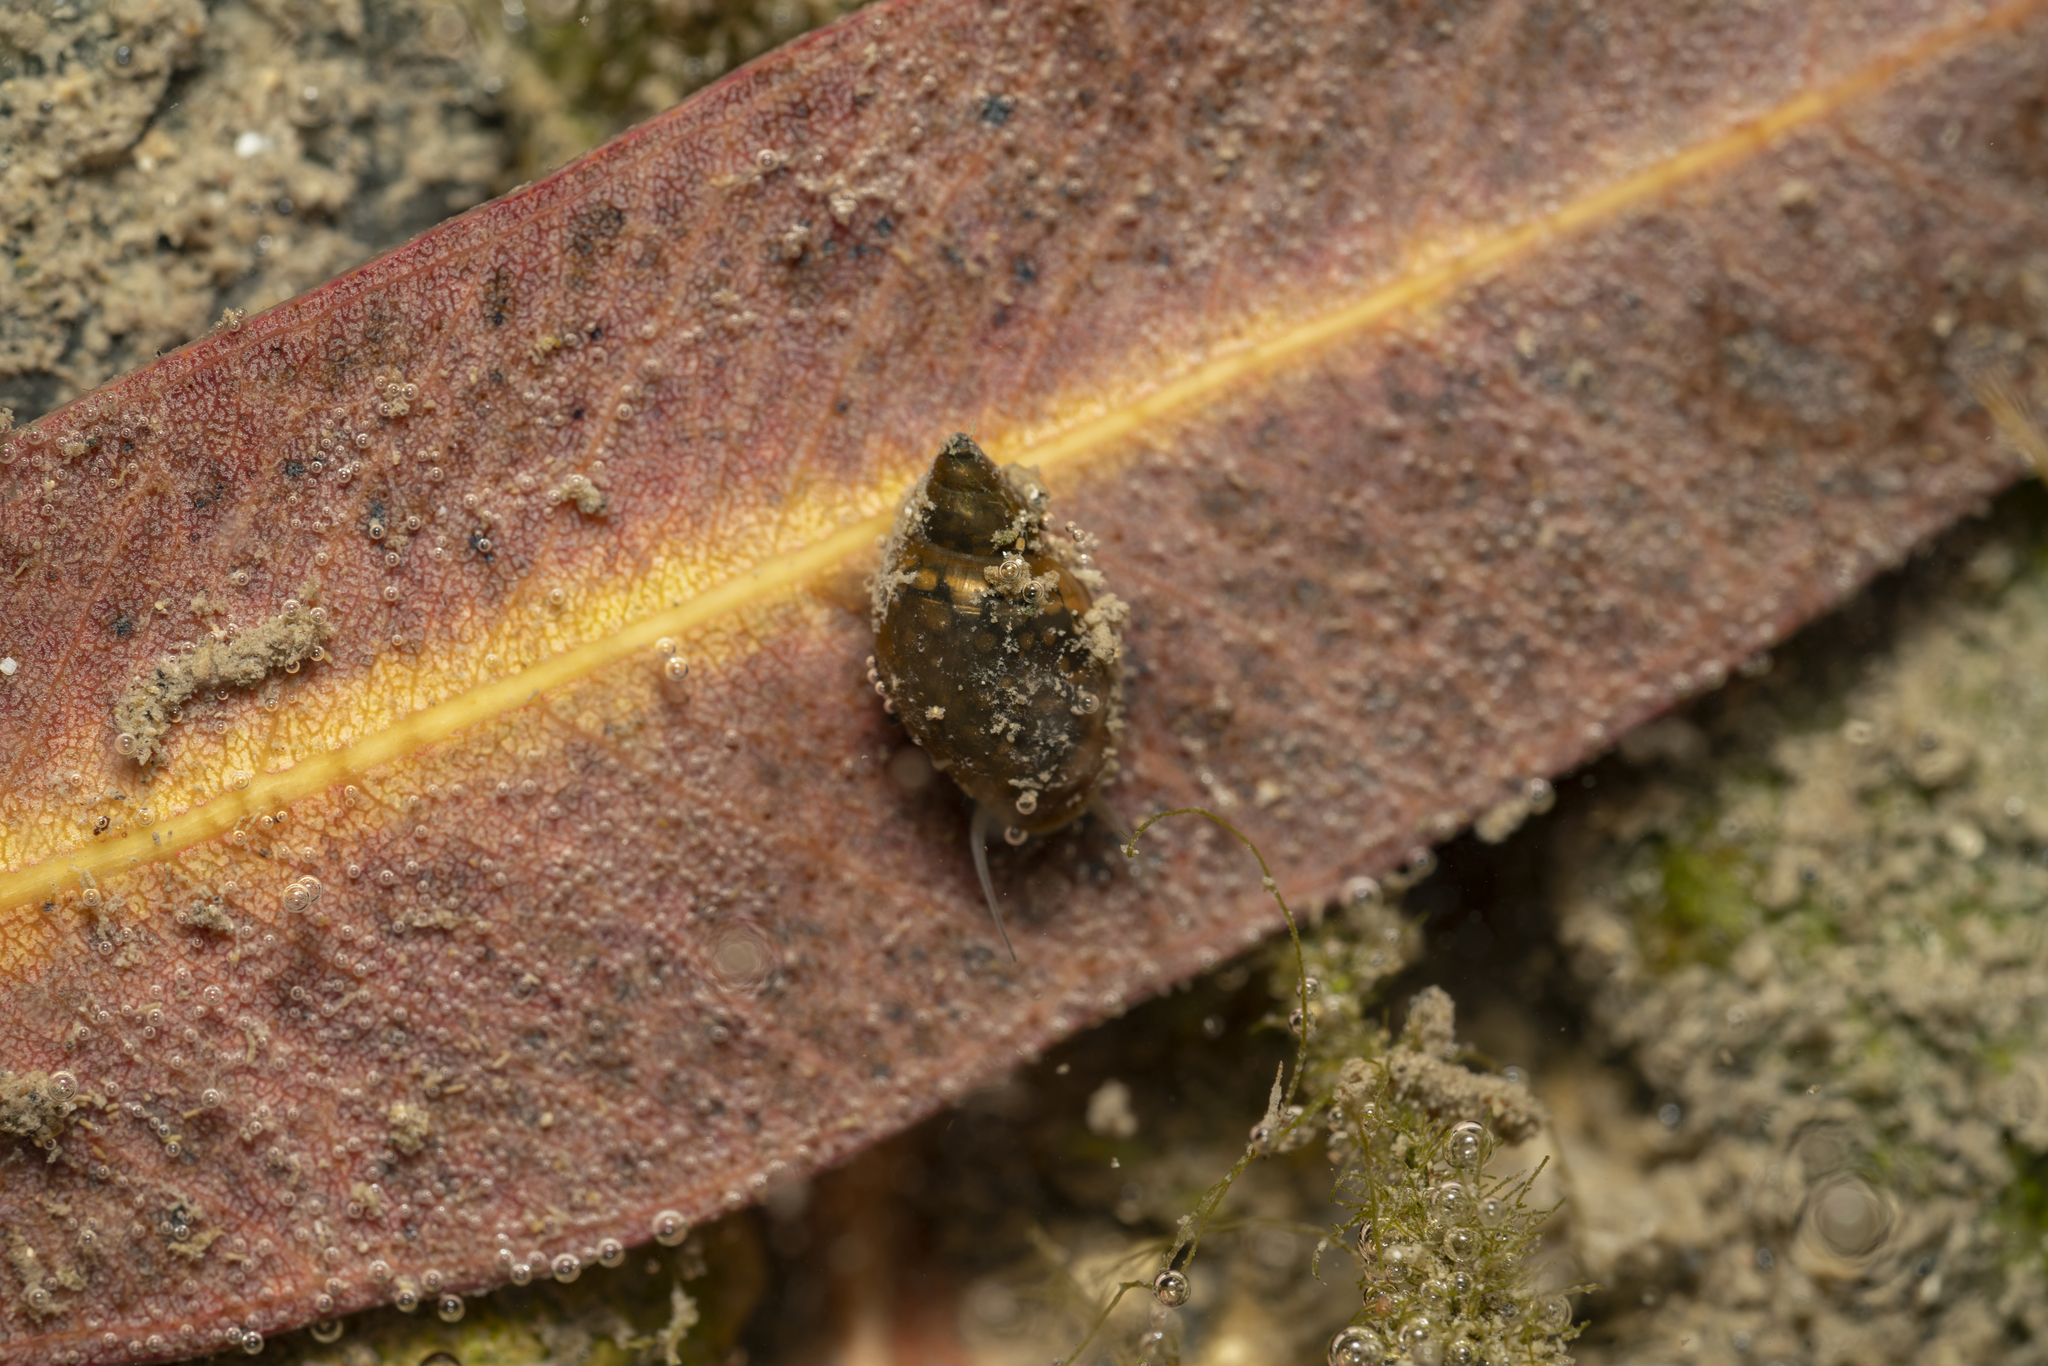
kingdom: Animalia
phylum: Mollusca
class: Gastropoda
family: Physidae
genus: Physella
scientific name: Physella acuta
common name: European physa
